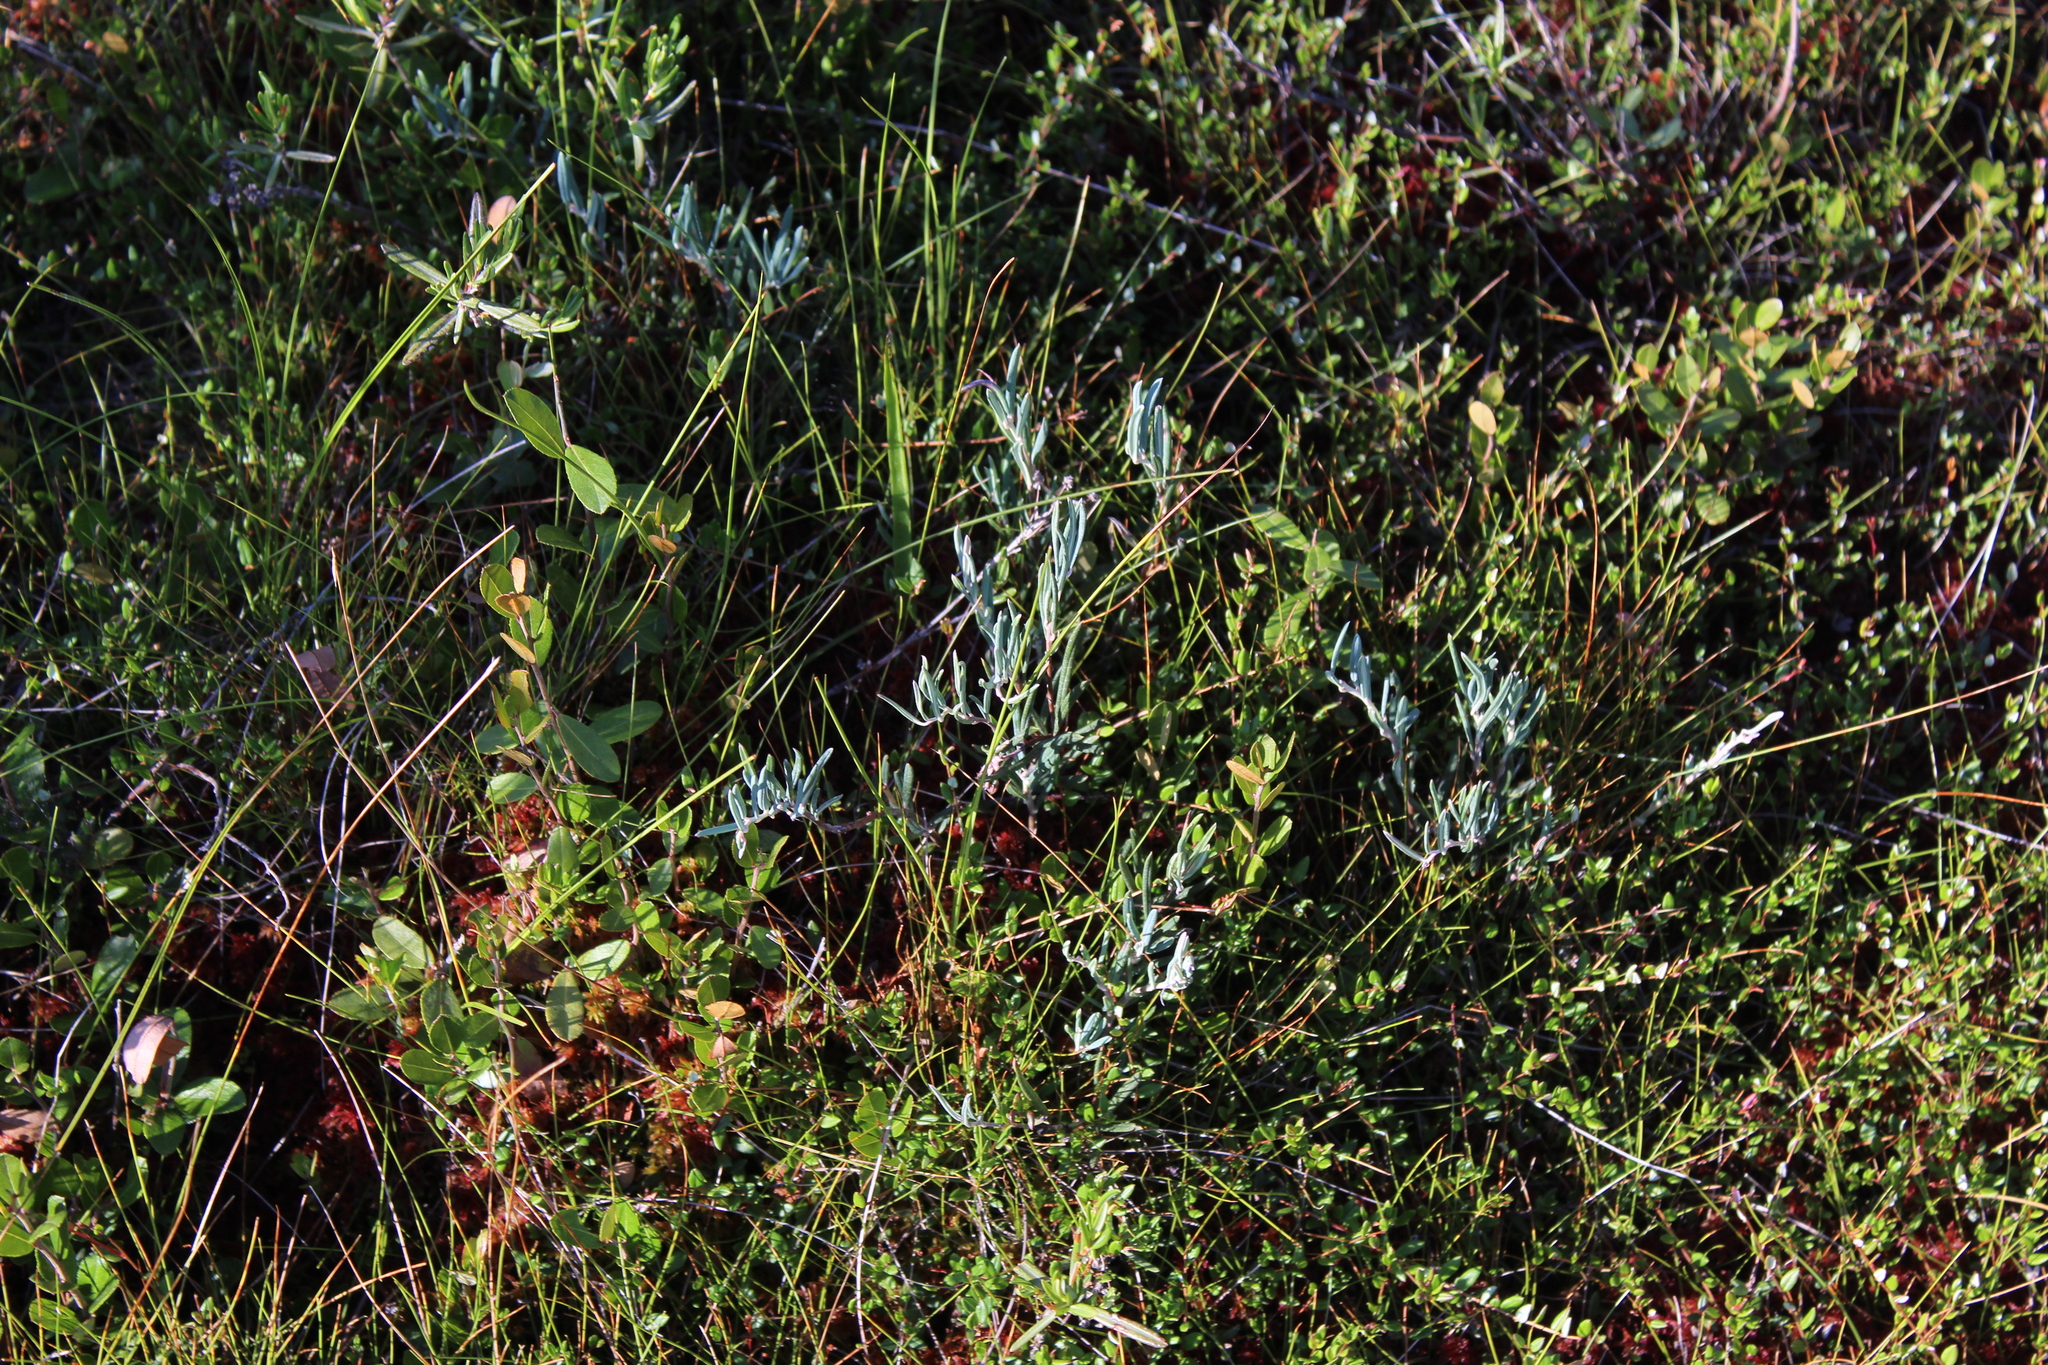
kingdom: Plantae
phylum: Tracheophyta
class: Magnoliopsida
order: Ericales
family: Ericaceae
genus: Andromeda
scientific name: Andromeda polifolia
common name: Bog-rosemary
